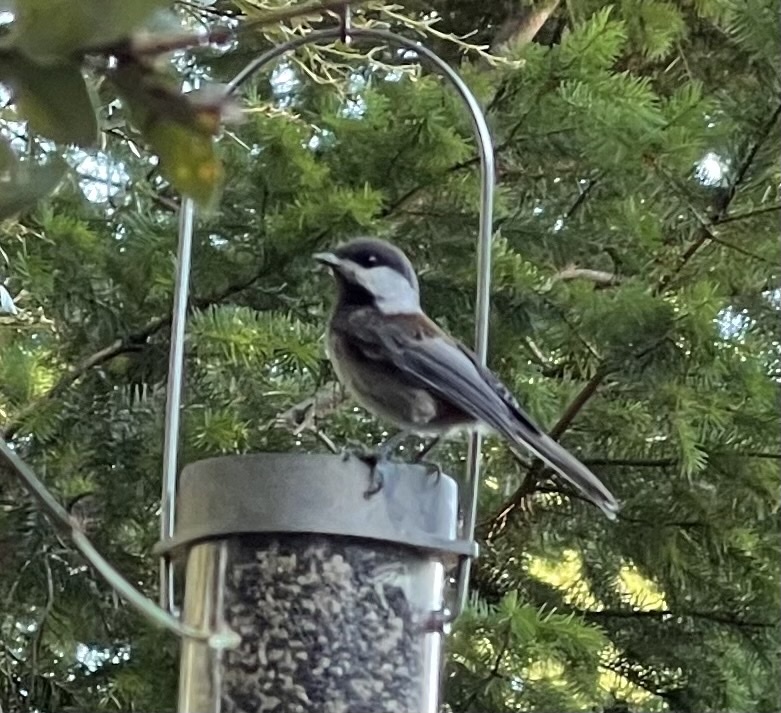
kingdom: Animalia
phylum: Chordata
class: Aves
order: Passeriformes
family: Paridae
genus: Poecile
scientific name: Poecile rufescens
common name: Chestnut-backed chickadee
